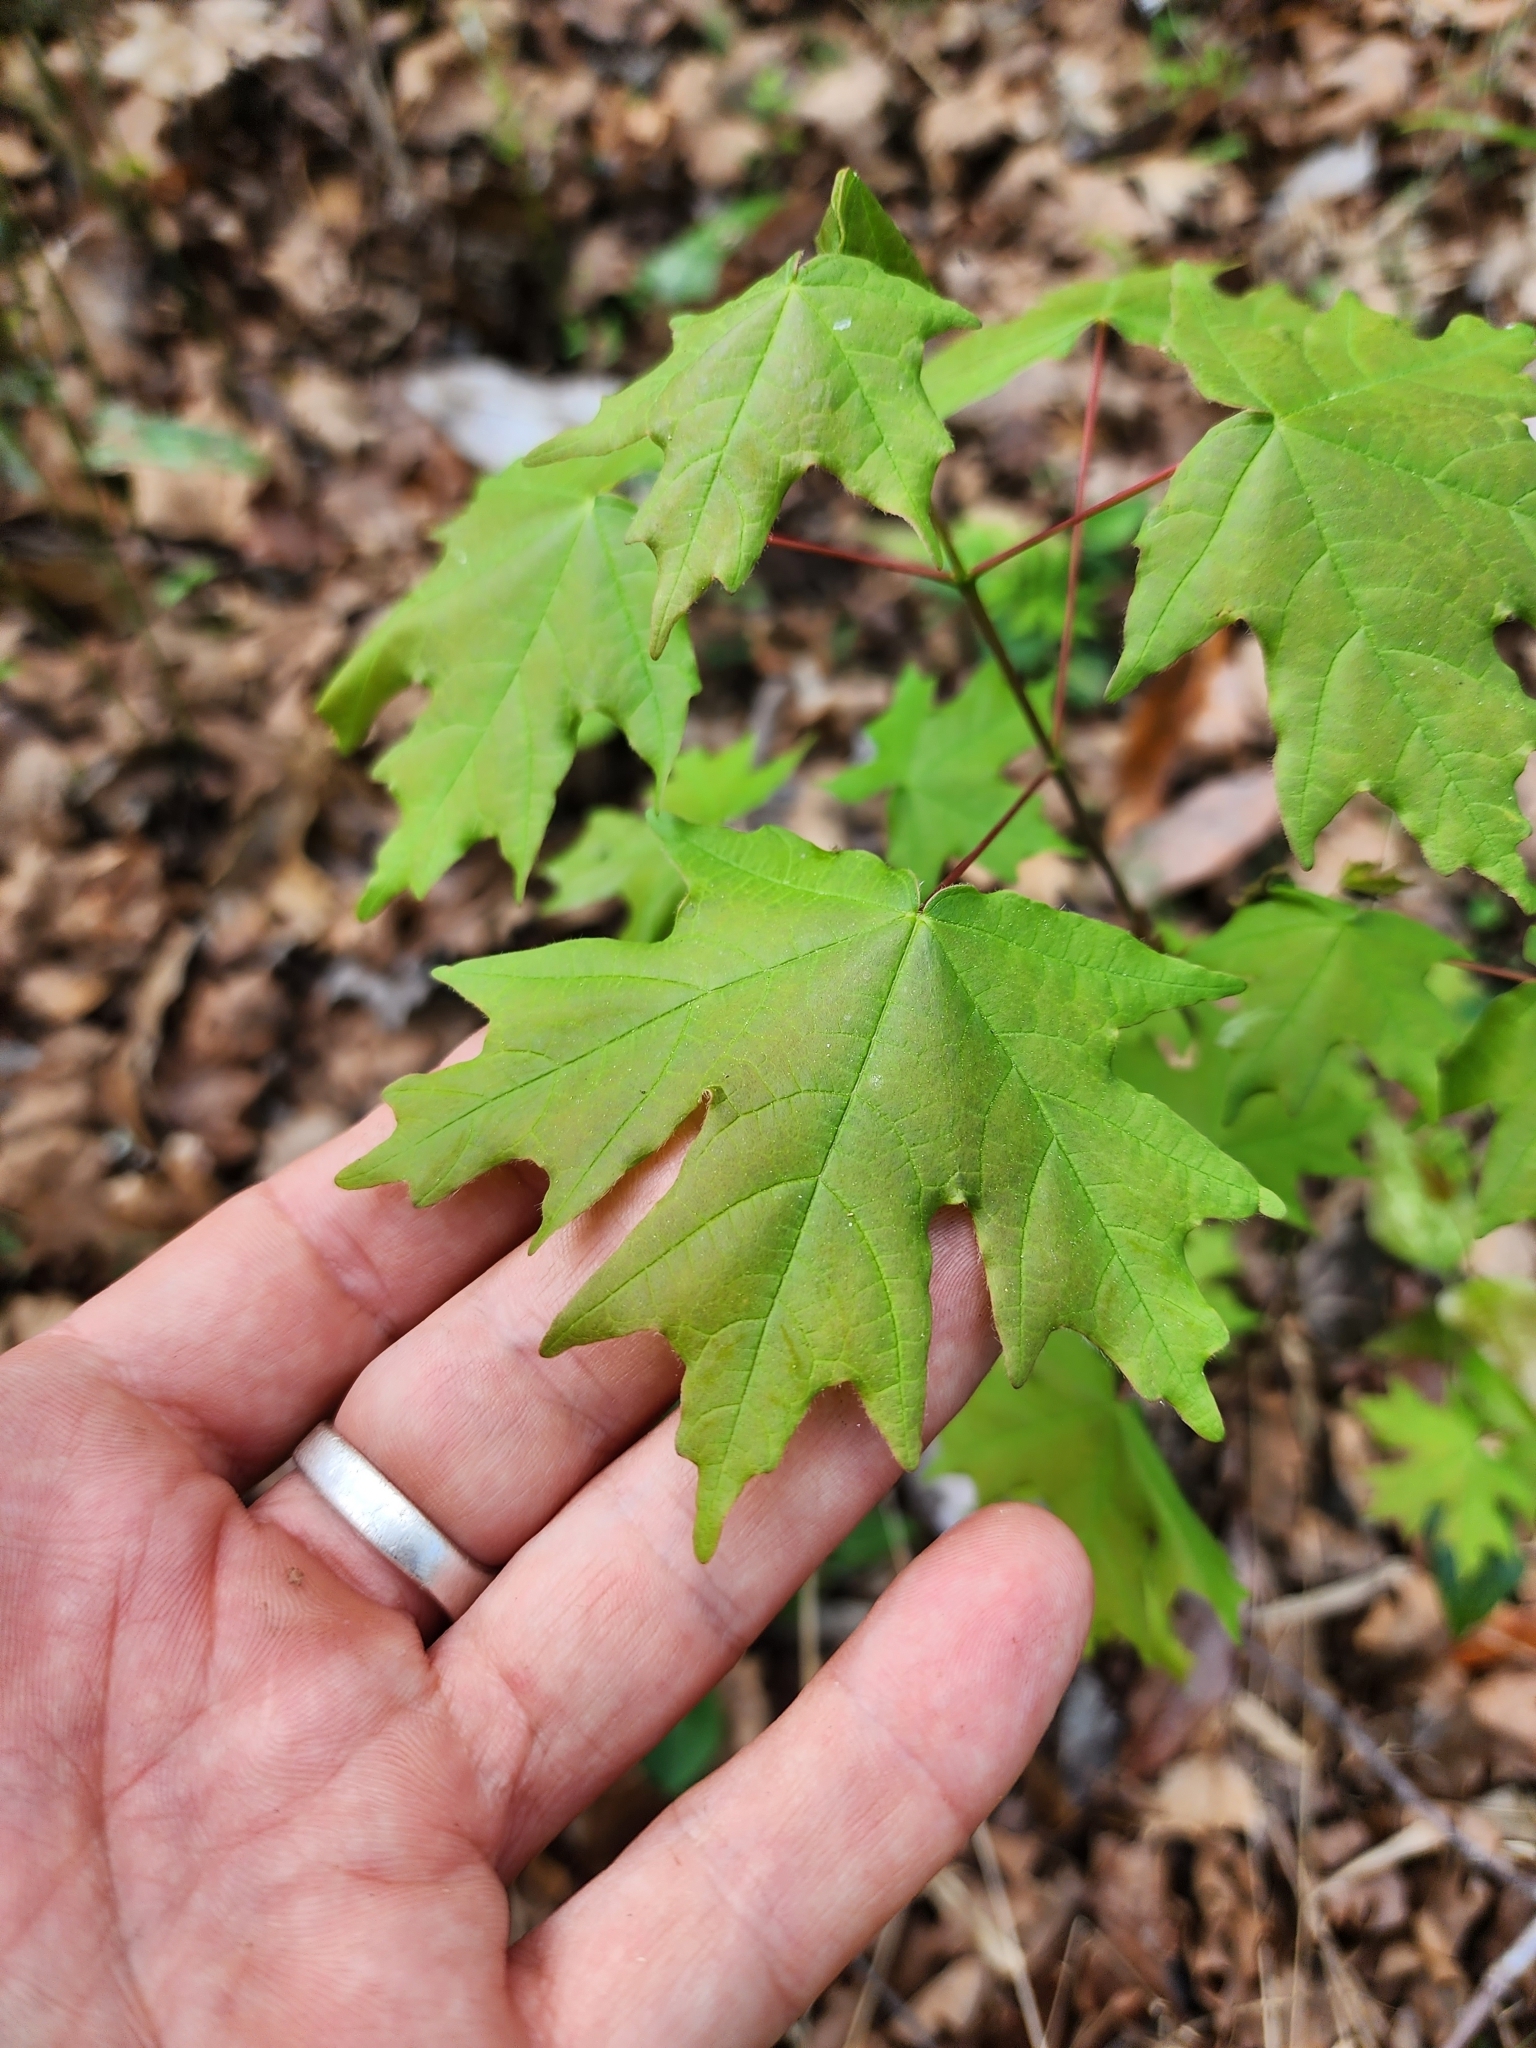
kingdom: Plantae
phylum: Tracheophyta
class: Magnoliopsida
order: Sapindales
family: Sapindaceae
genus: Acer
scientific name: Acer floridanum
